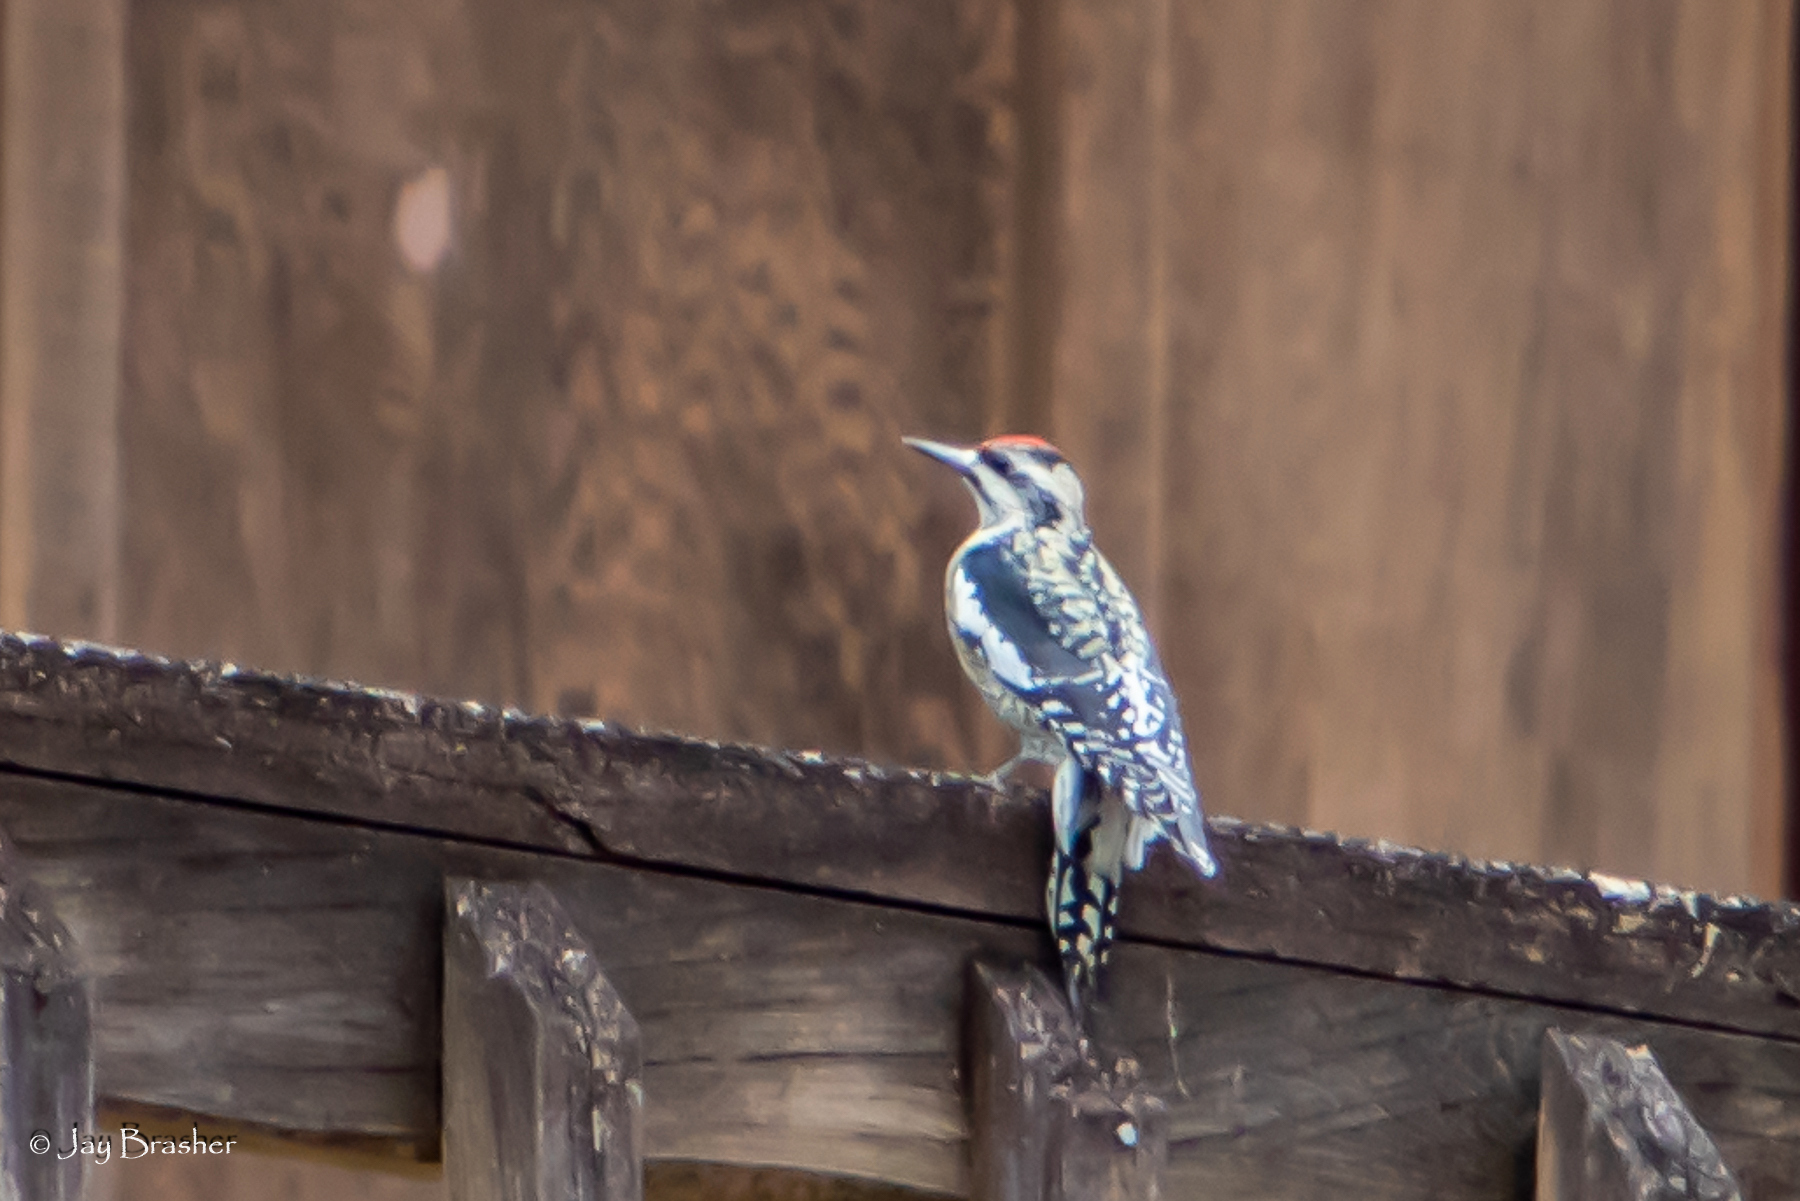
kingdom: Animalia
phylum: Chordata
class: Aves
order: Piciformes
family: Picidae
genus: Sphyrapicus
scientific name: Sphyrapicus varius
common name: Yellow-bellied sapsucker
